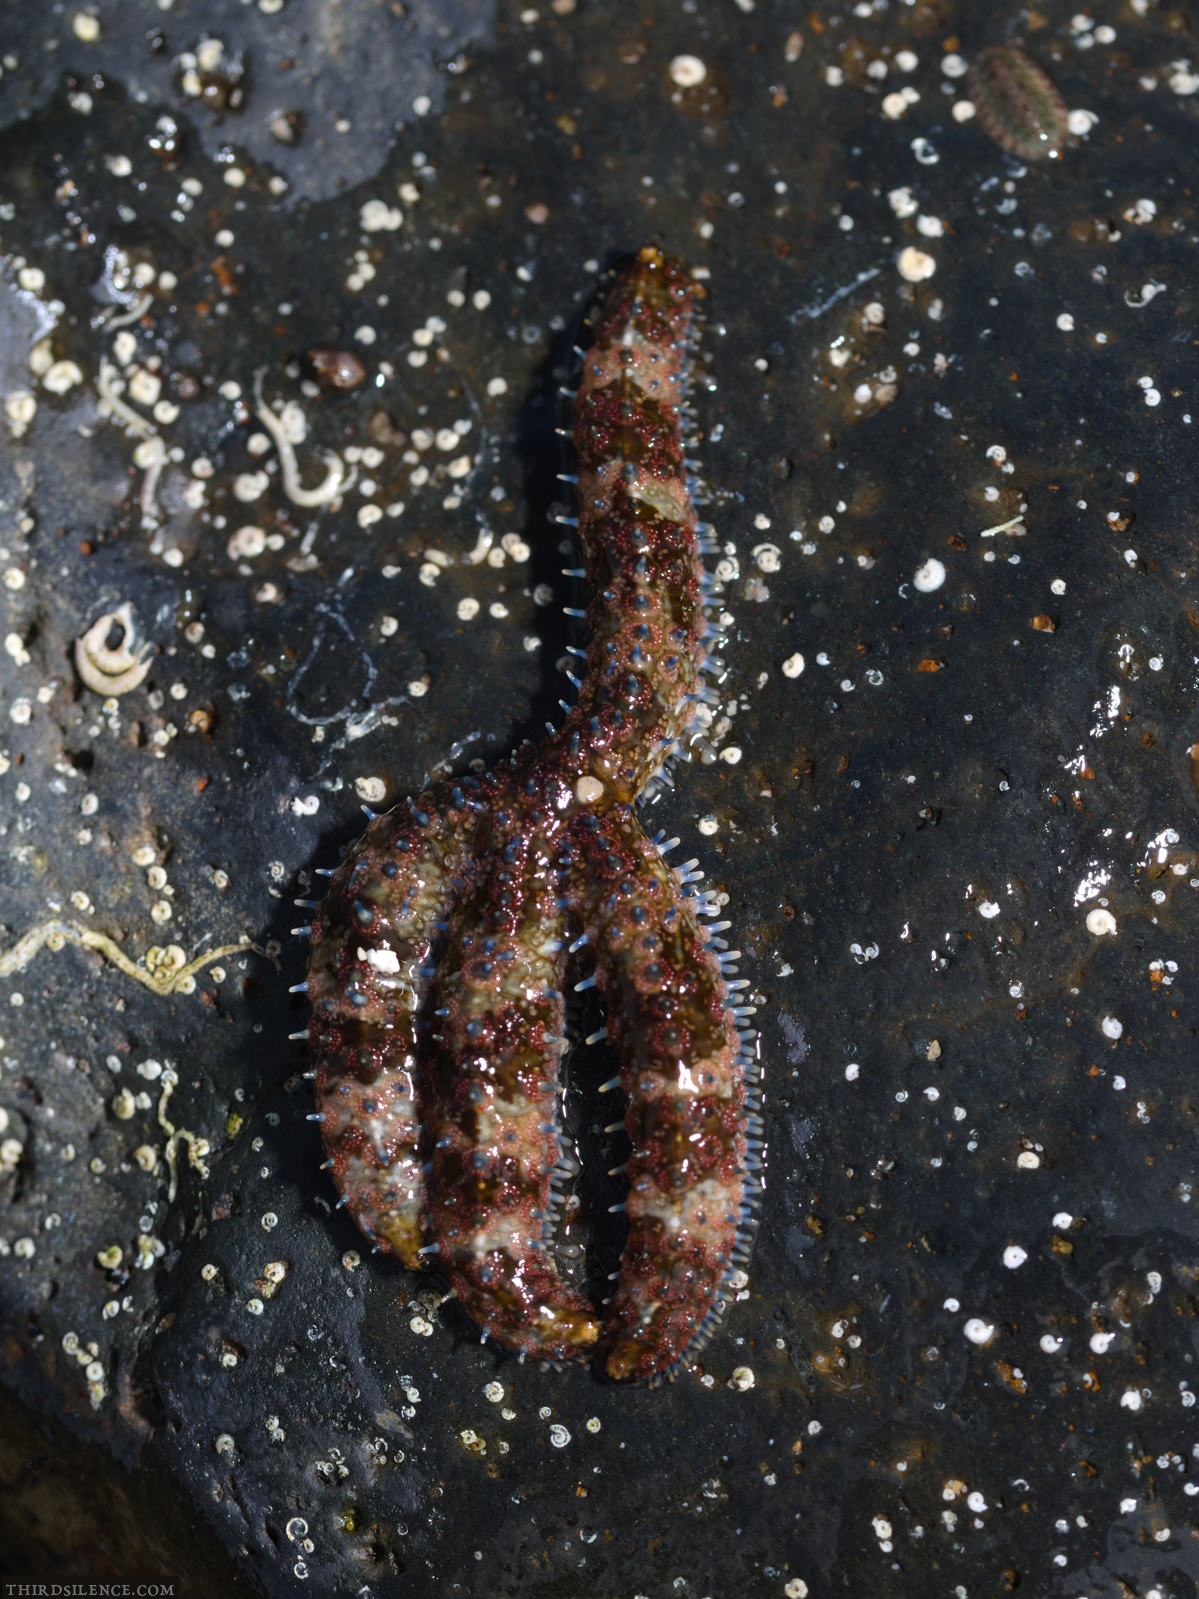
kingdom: Animalia
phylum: Echinodermata
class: Asteroidea
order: Forcipulatida
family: Asteriidae
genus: Coscinasterias
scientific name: Coscinasterias muricata
